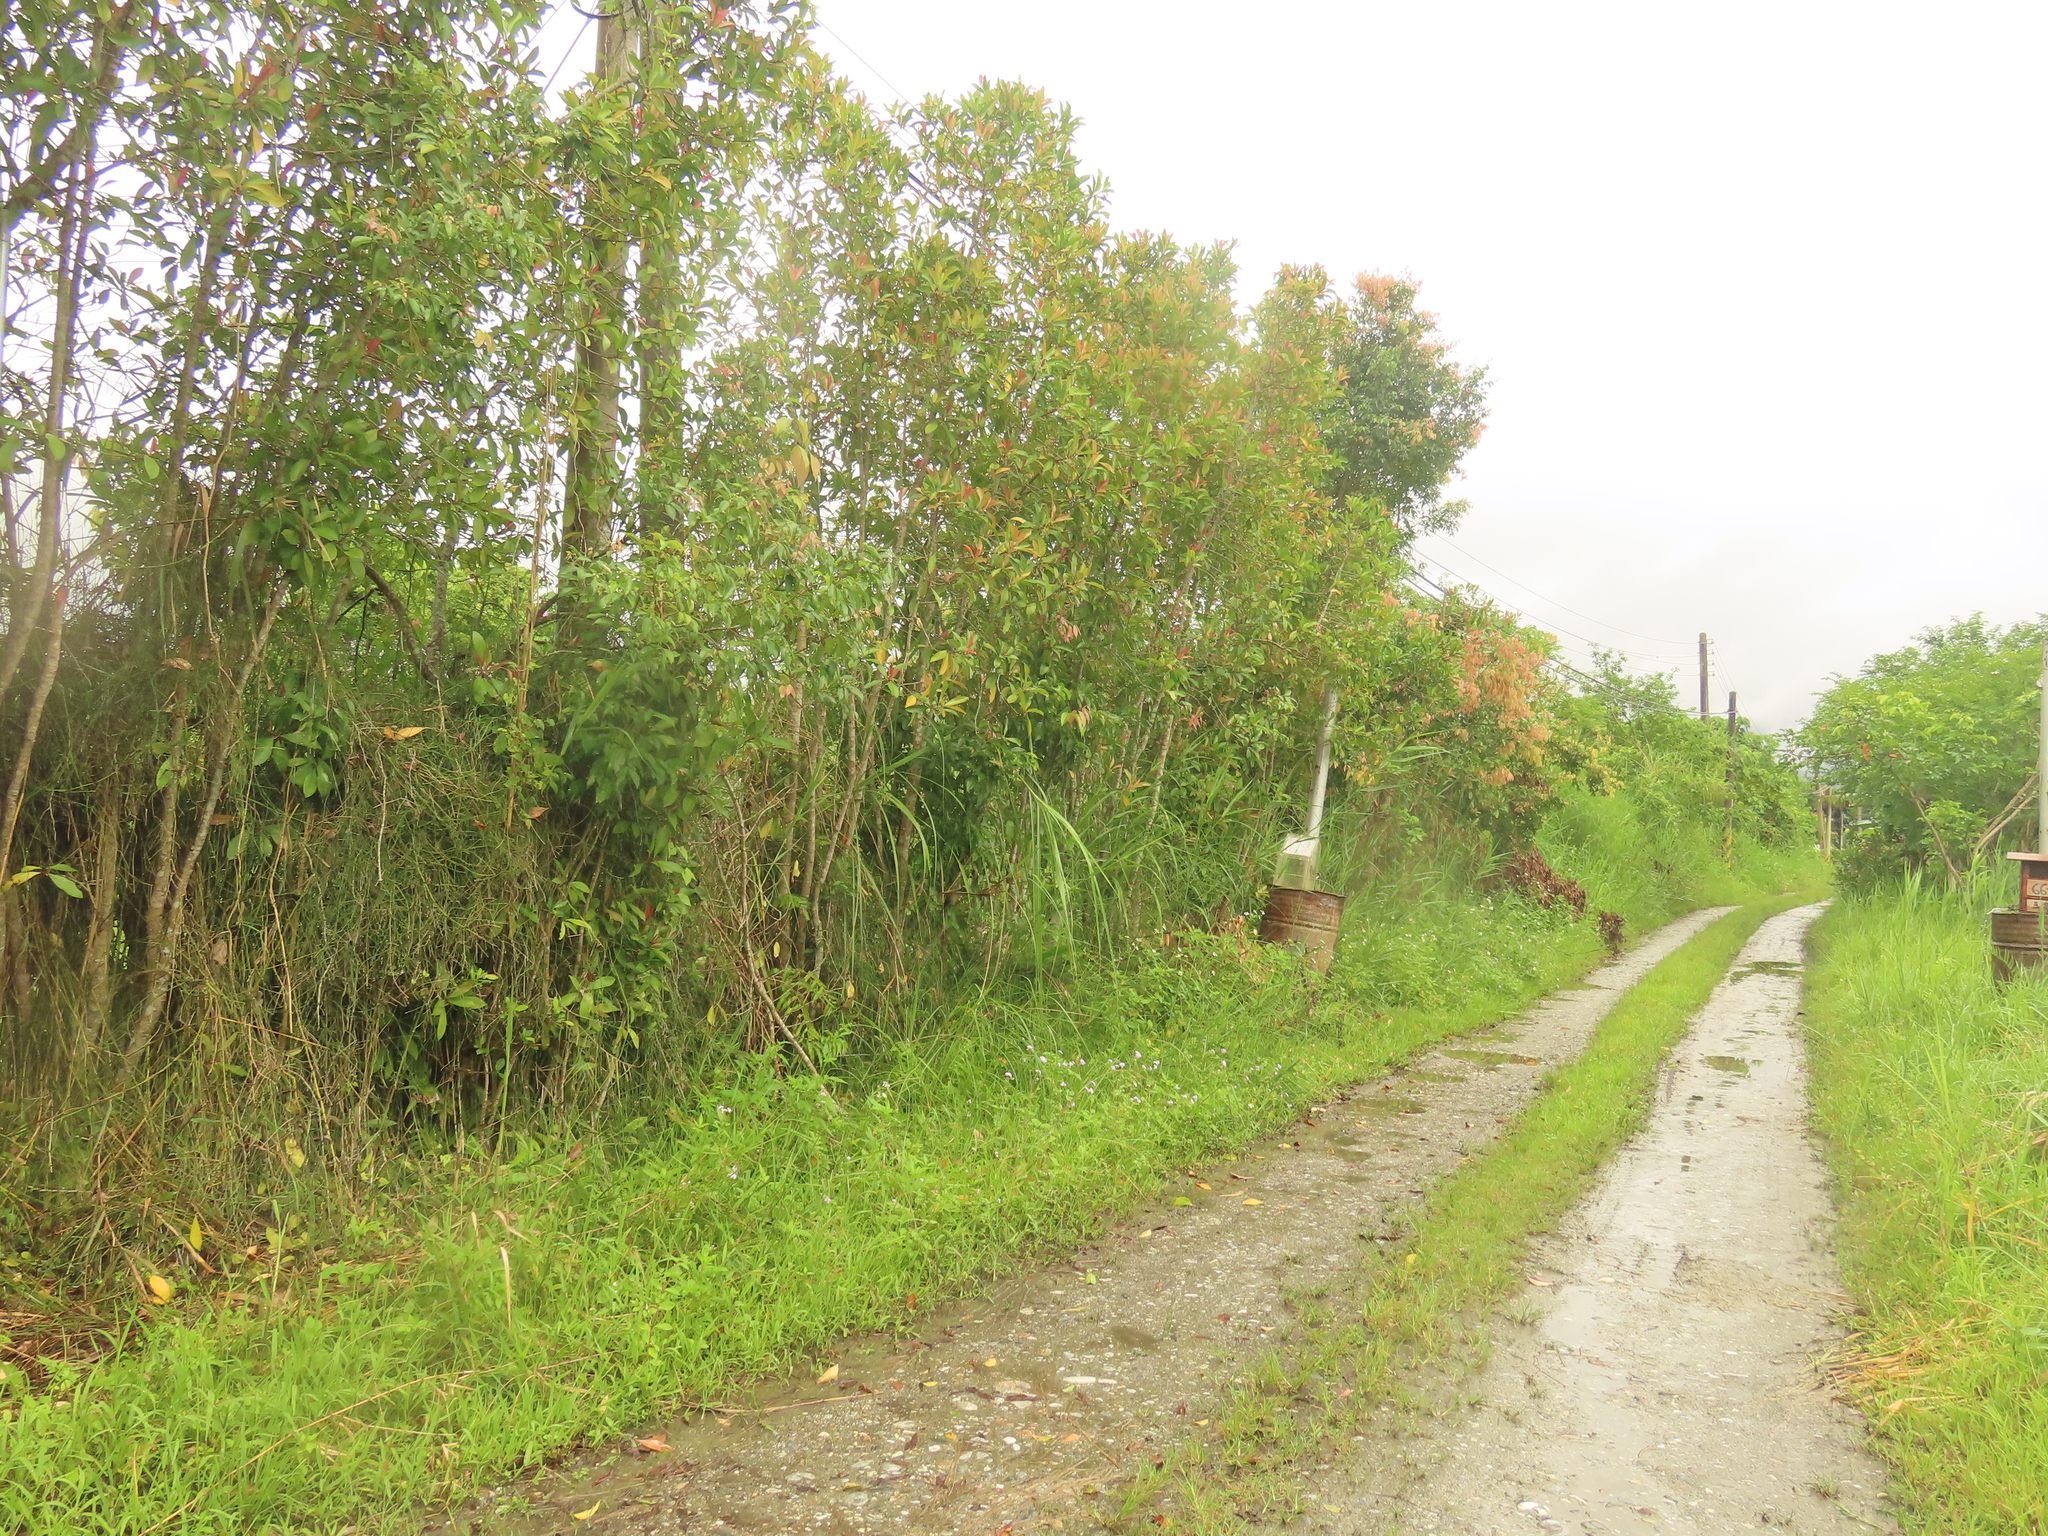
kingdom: Plantae
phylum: Tracheophyta
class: Polypodiopsida
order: Equisetales
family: Equisetaceae
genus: Equisetum
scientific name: Equisetum ramosissimum
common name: Branched horsetail
